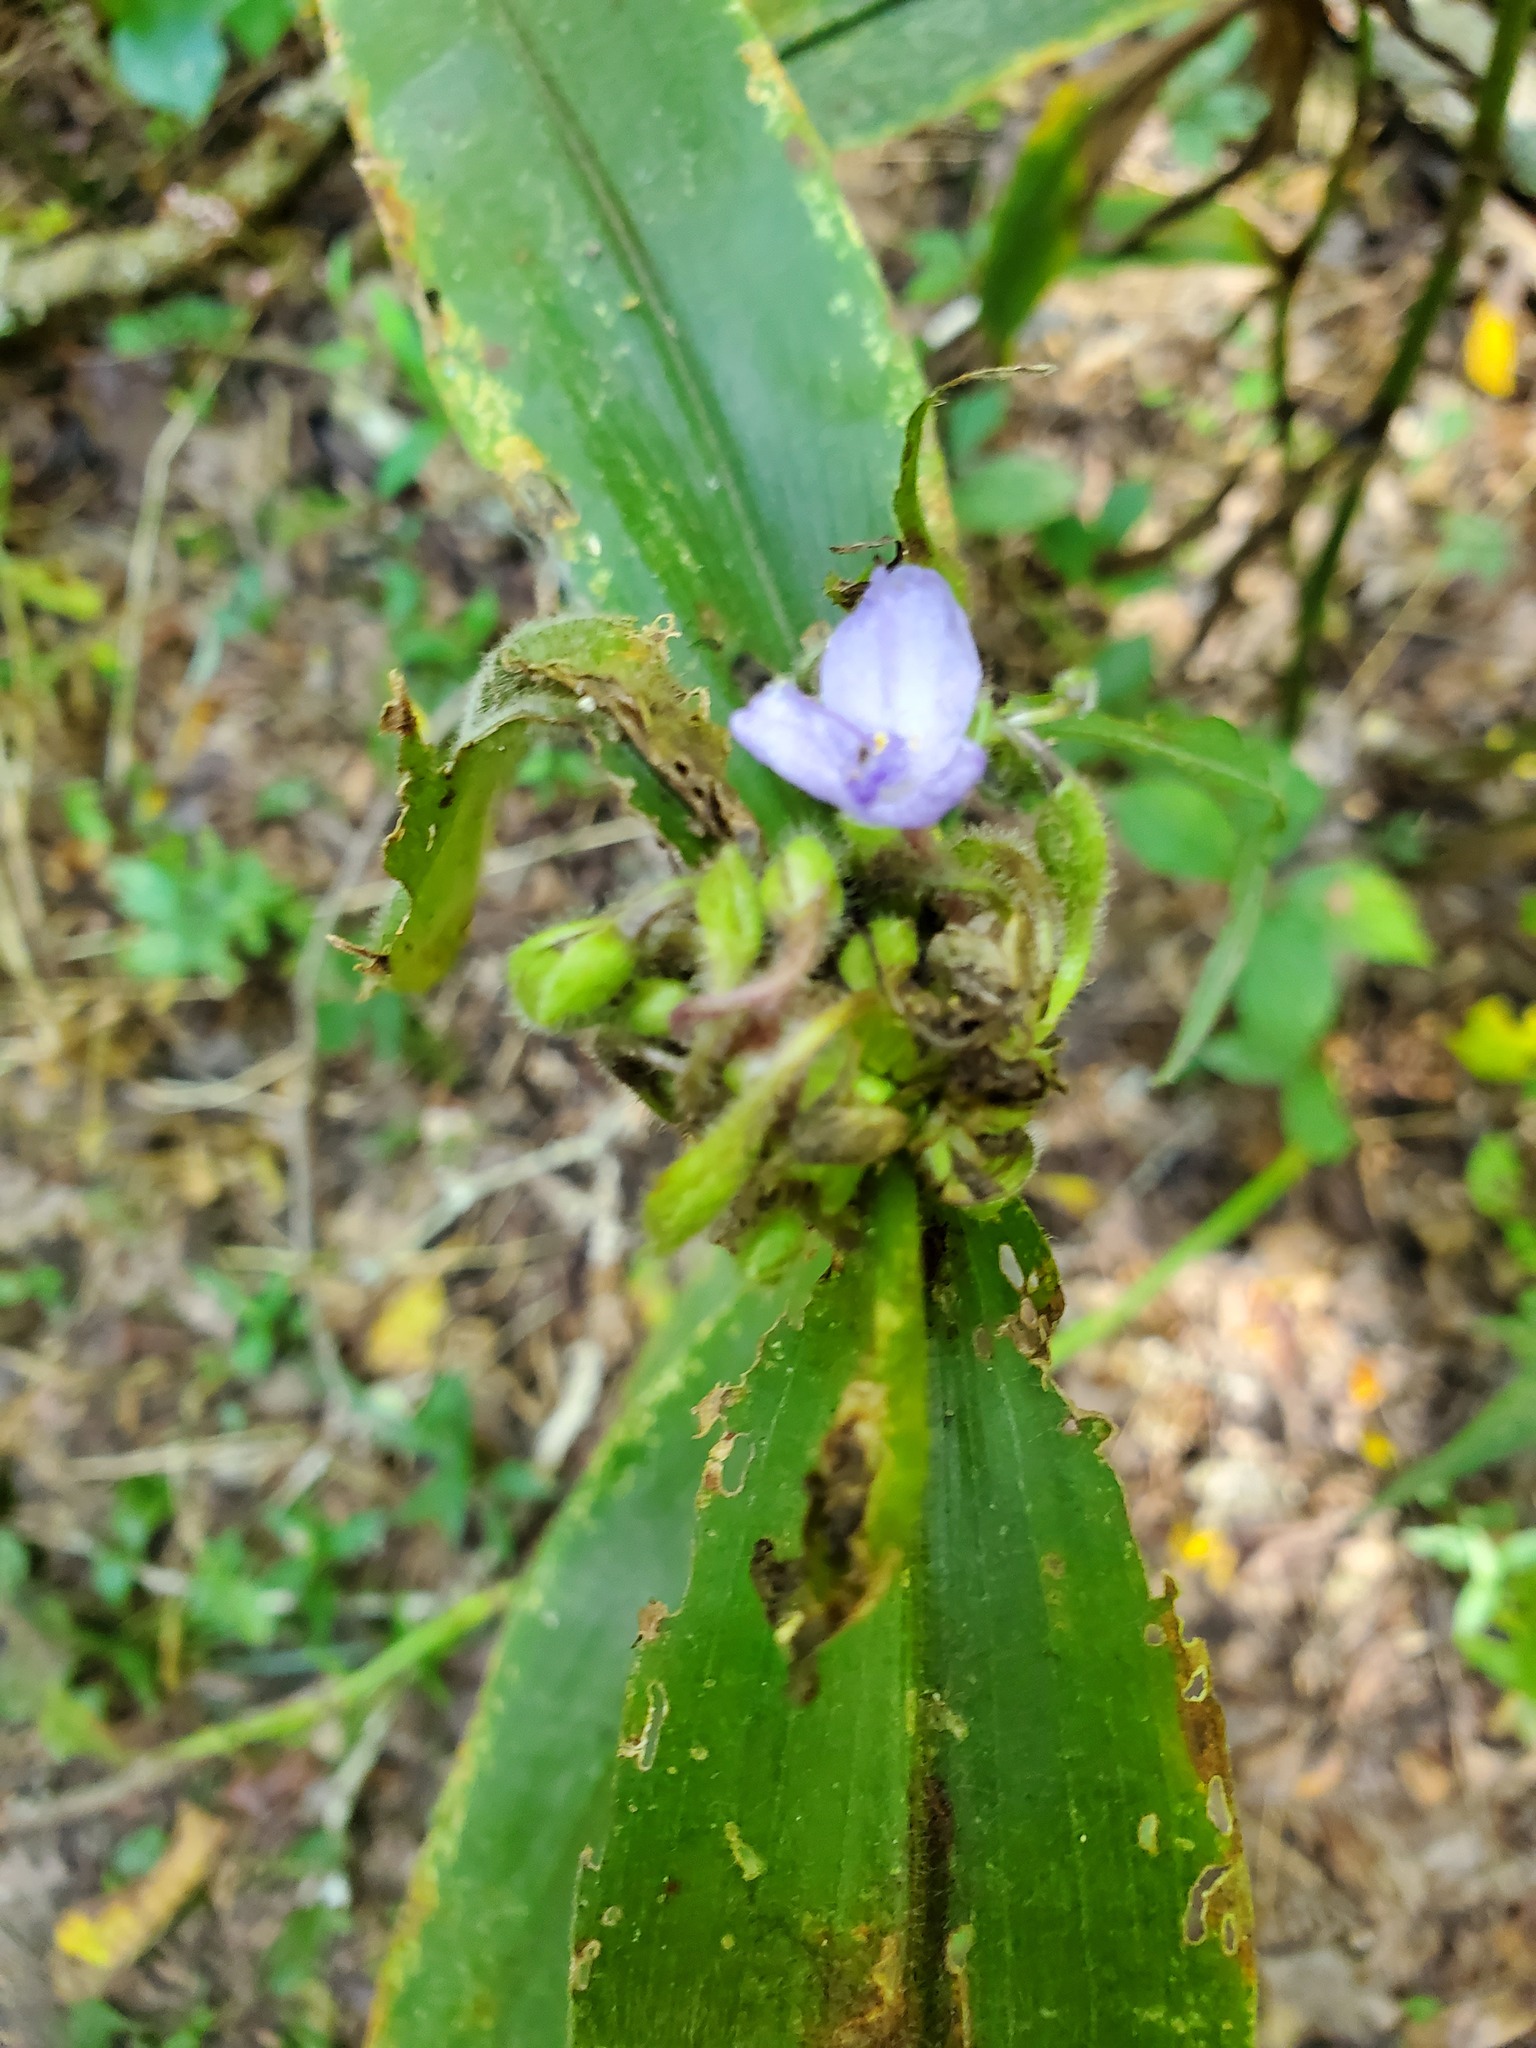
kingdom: Plantae
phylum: Tracheophyta
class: Liliopsida
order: Commelinales
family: Commelinaceae
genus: Tradescantia
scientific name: Tradescantia subaspera
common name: Wide-leaf spiderwort
